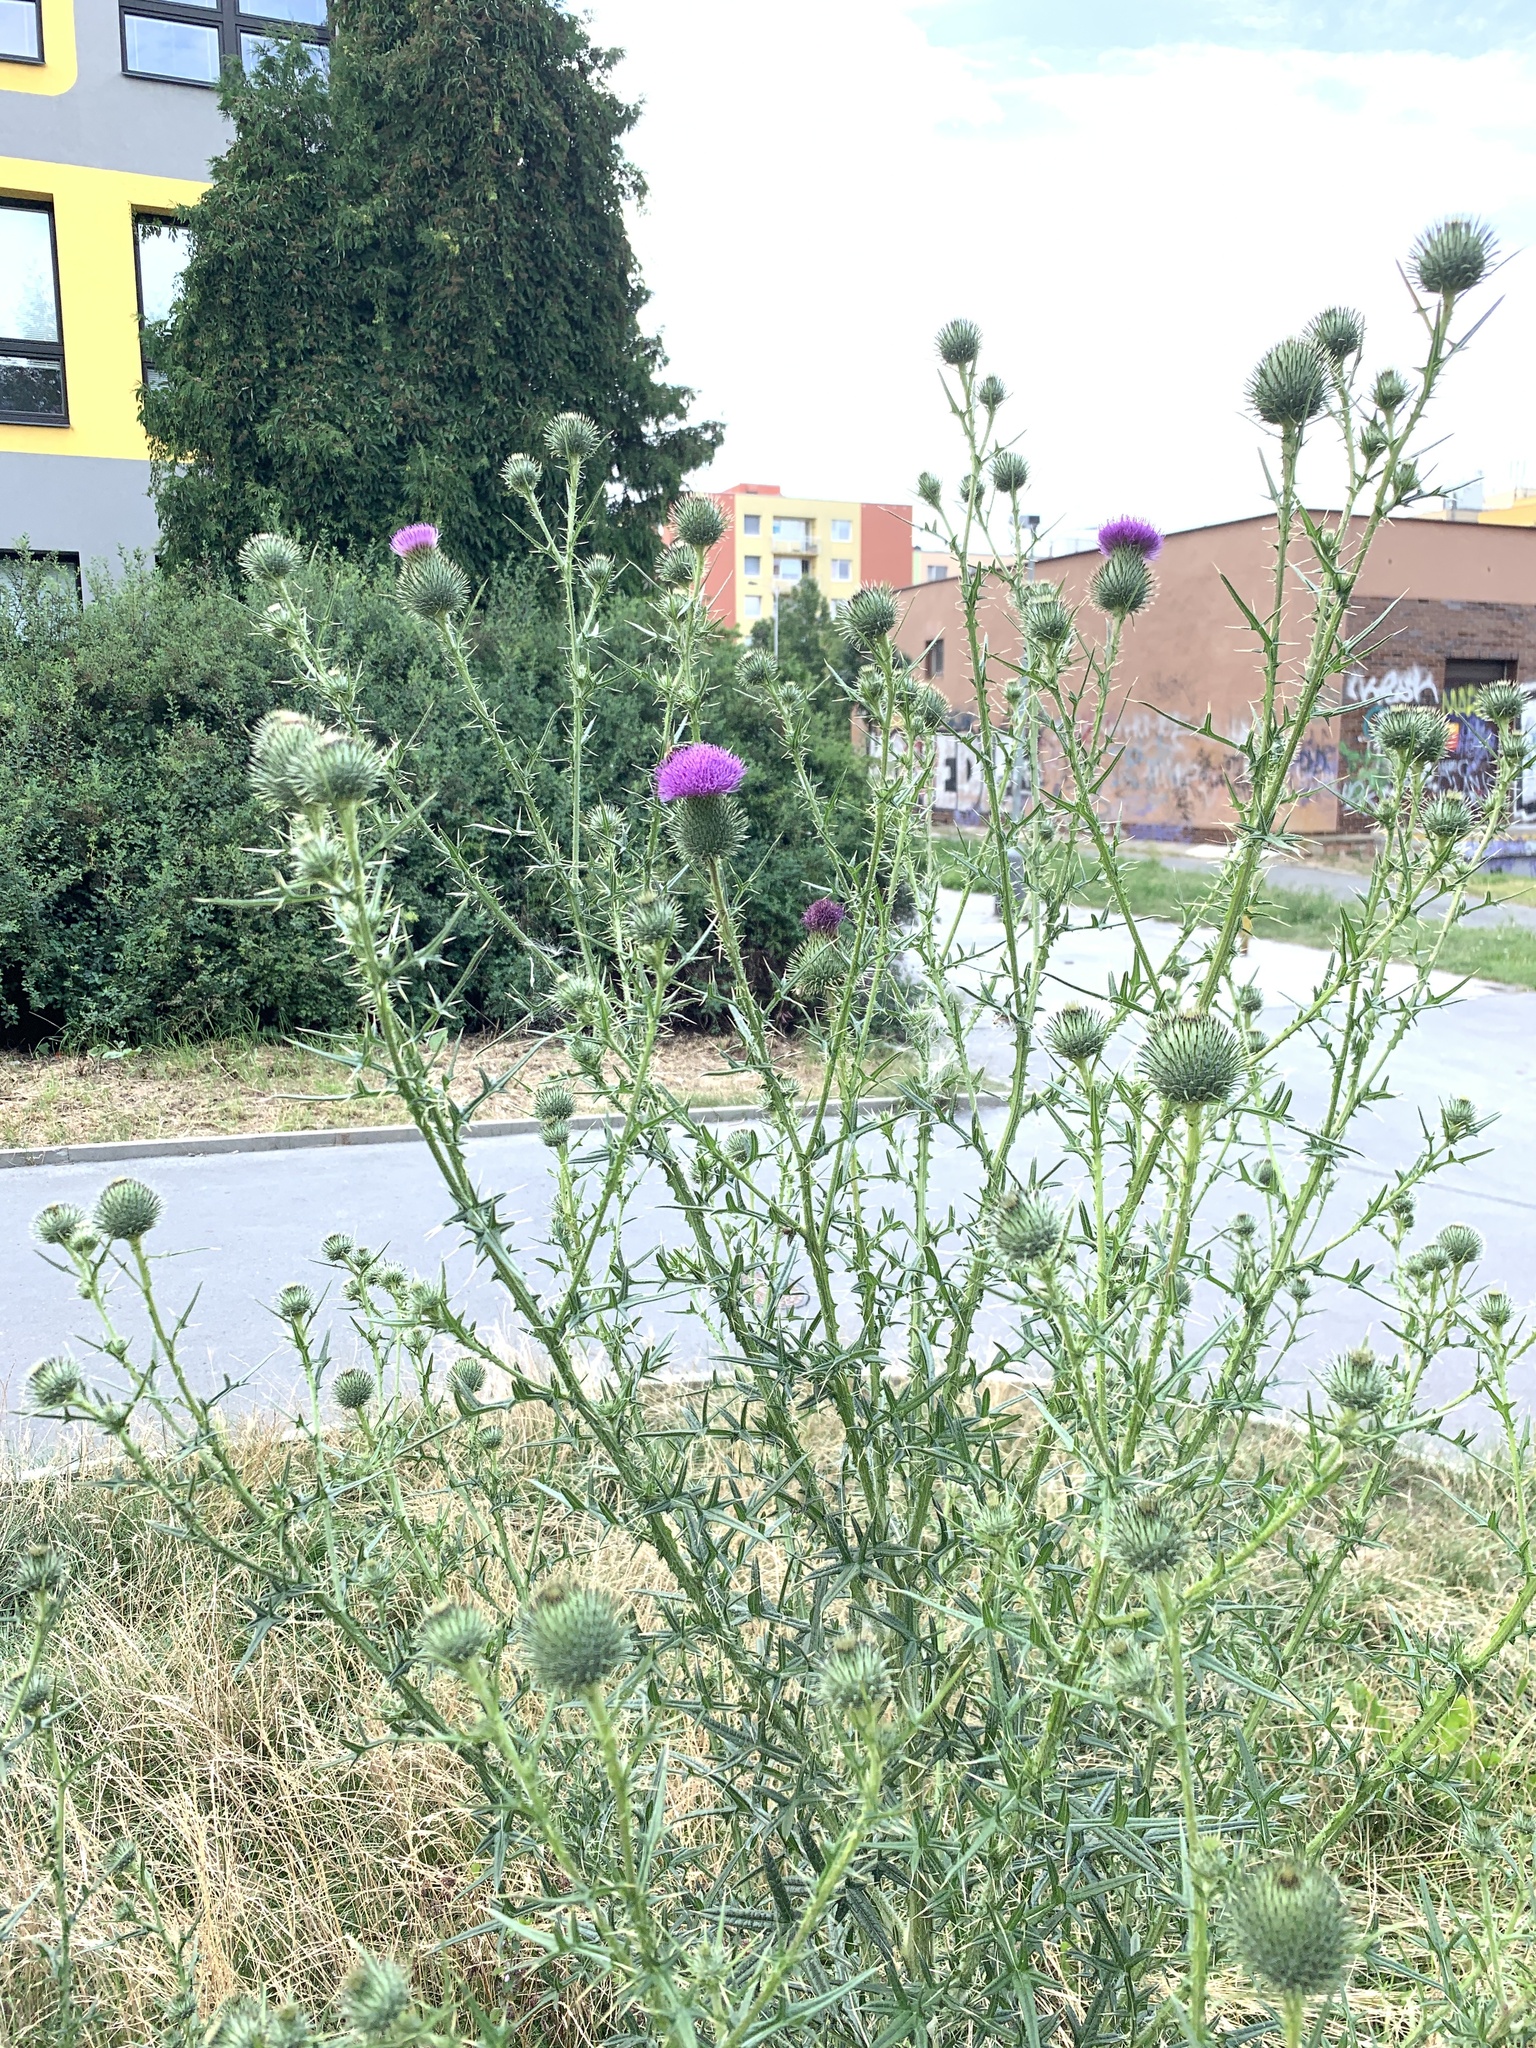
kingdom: Plantae
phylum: Tracheophyta
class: Magnoliopsida
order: Asterales
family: Asteraceae
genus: Cirsium
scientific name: Cirsium vulgare
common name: Bull thistle
